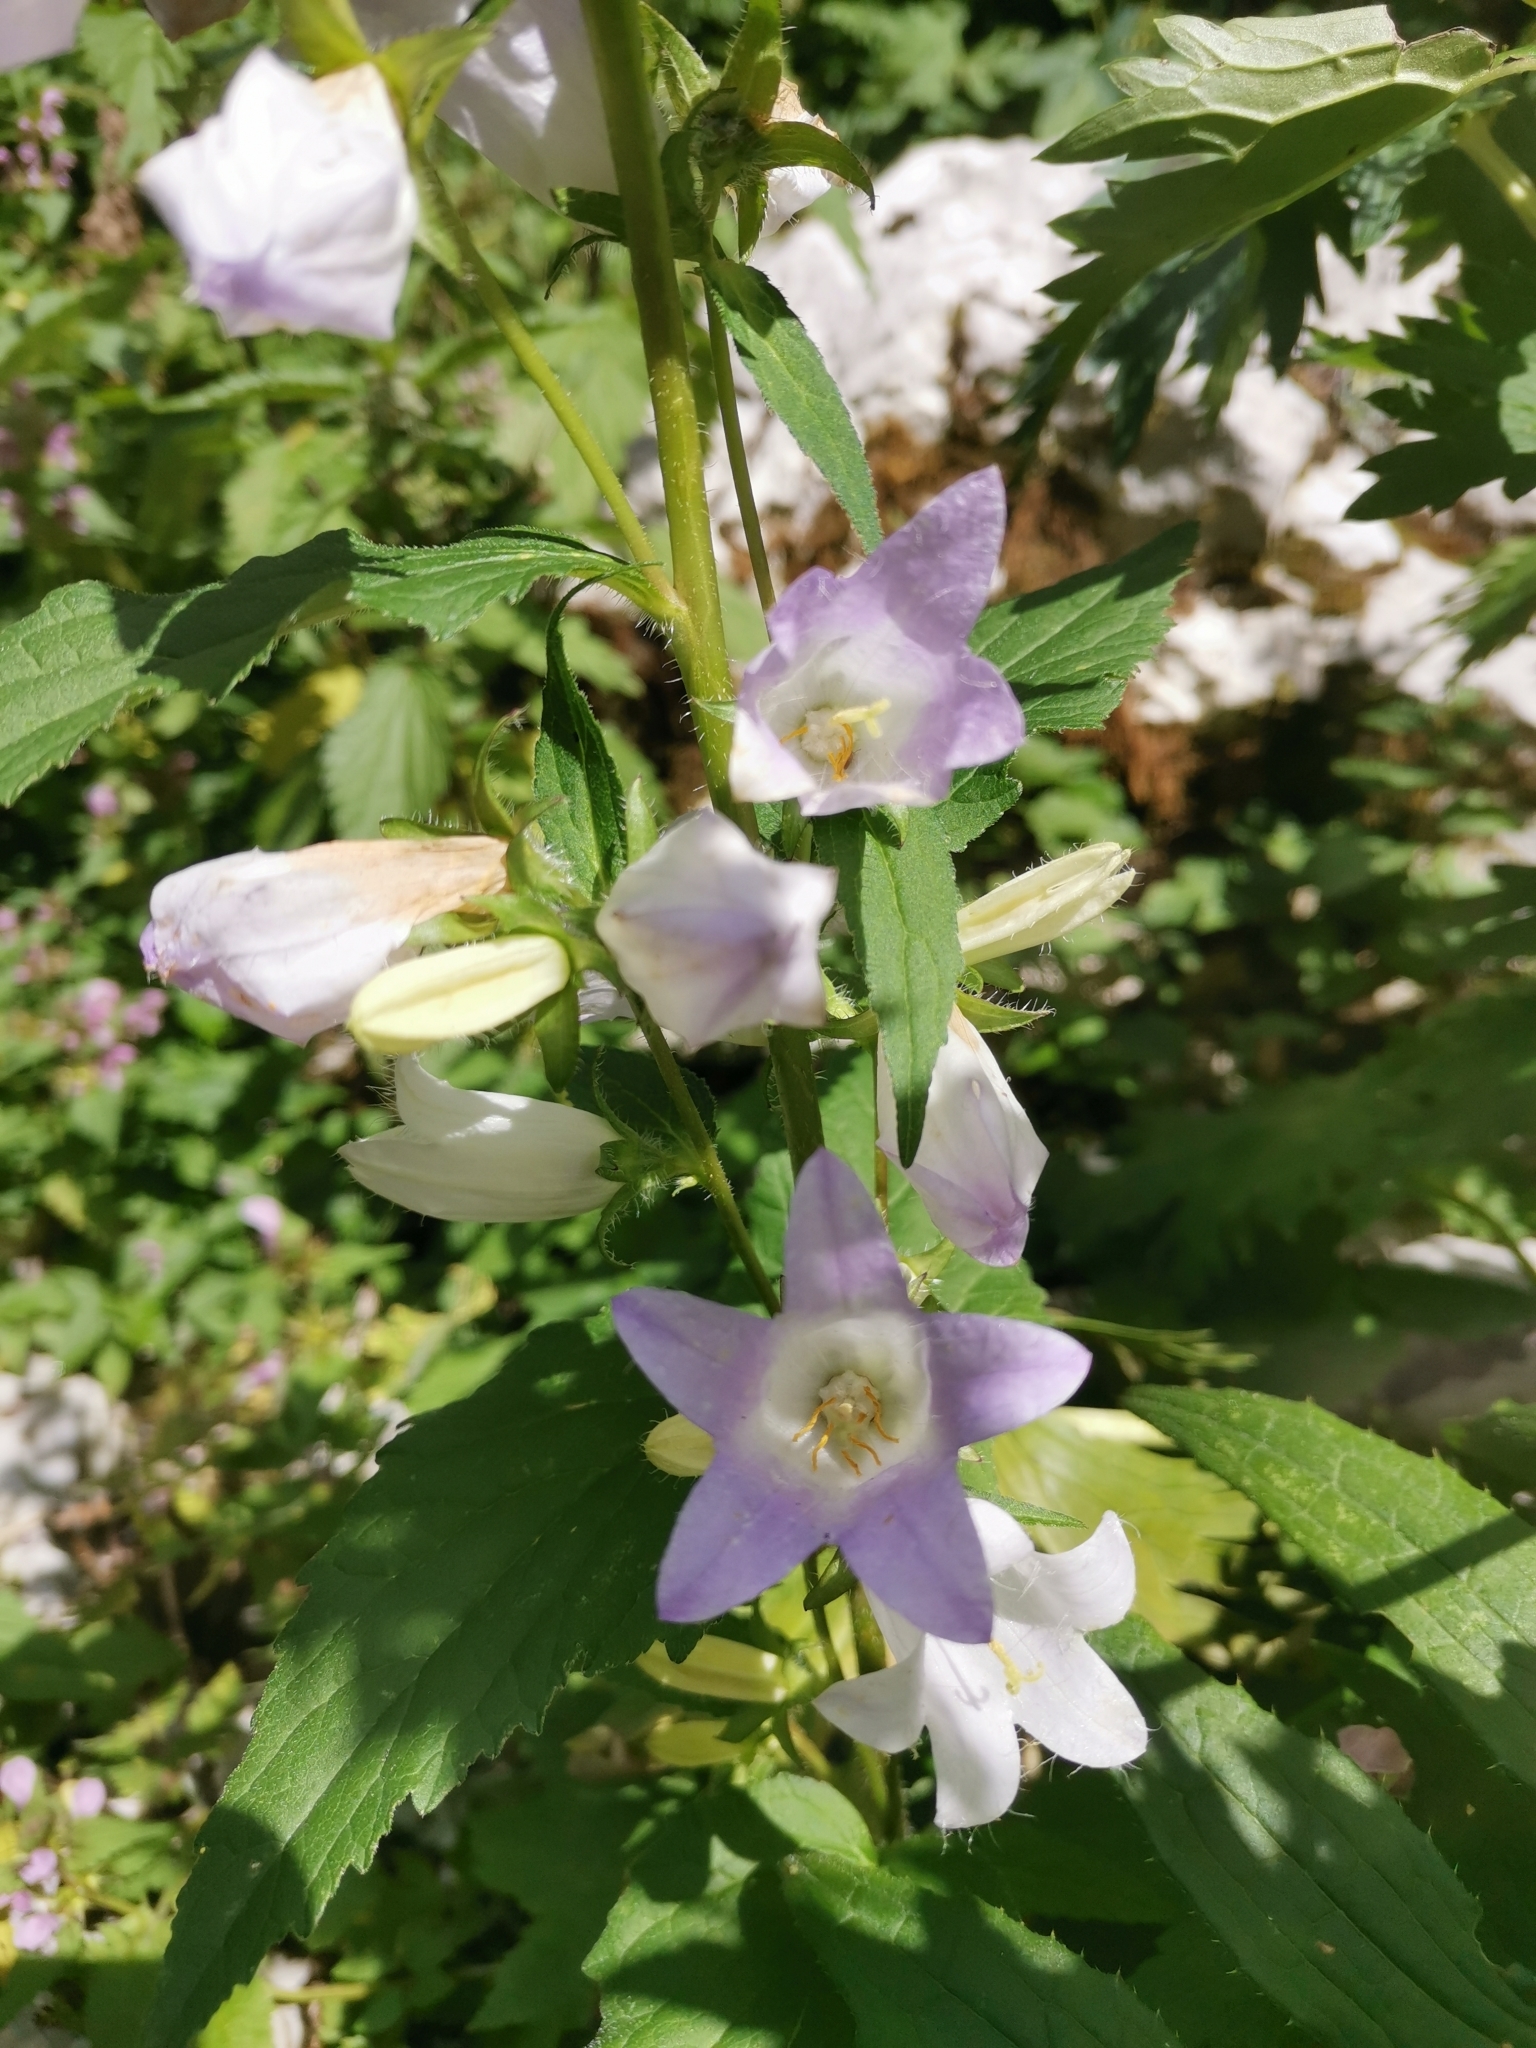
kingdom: Plantae
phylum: Tracheophyta
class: Magnoliopsida
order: Asterales
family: Campanulaceae
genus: Campanula
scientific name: Campanula trachelium
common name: Nettle-leaved bellflower
